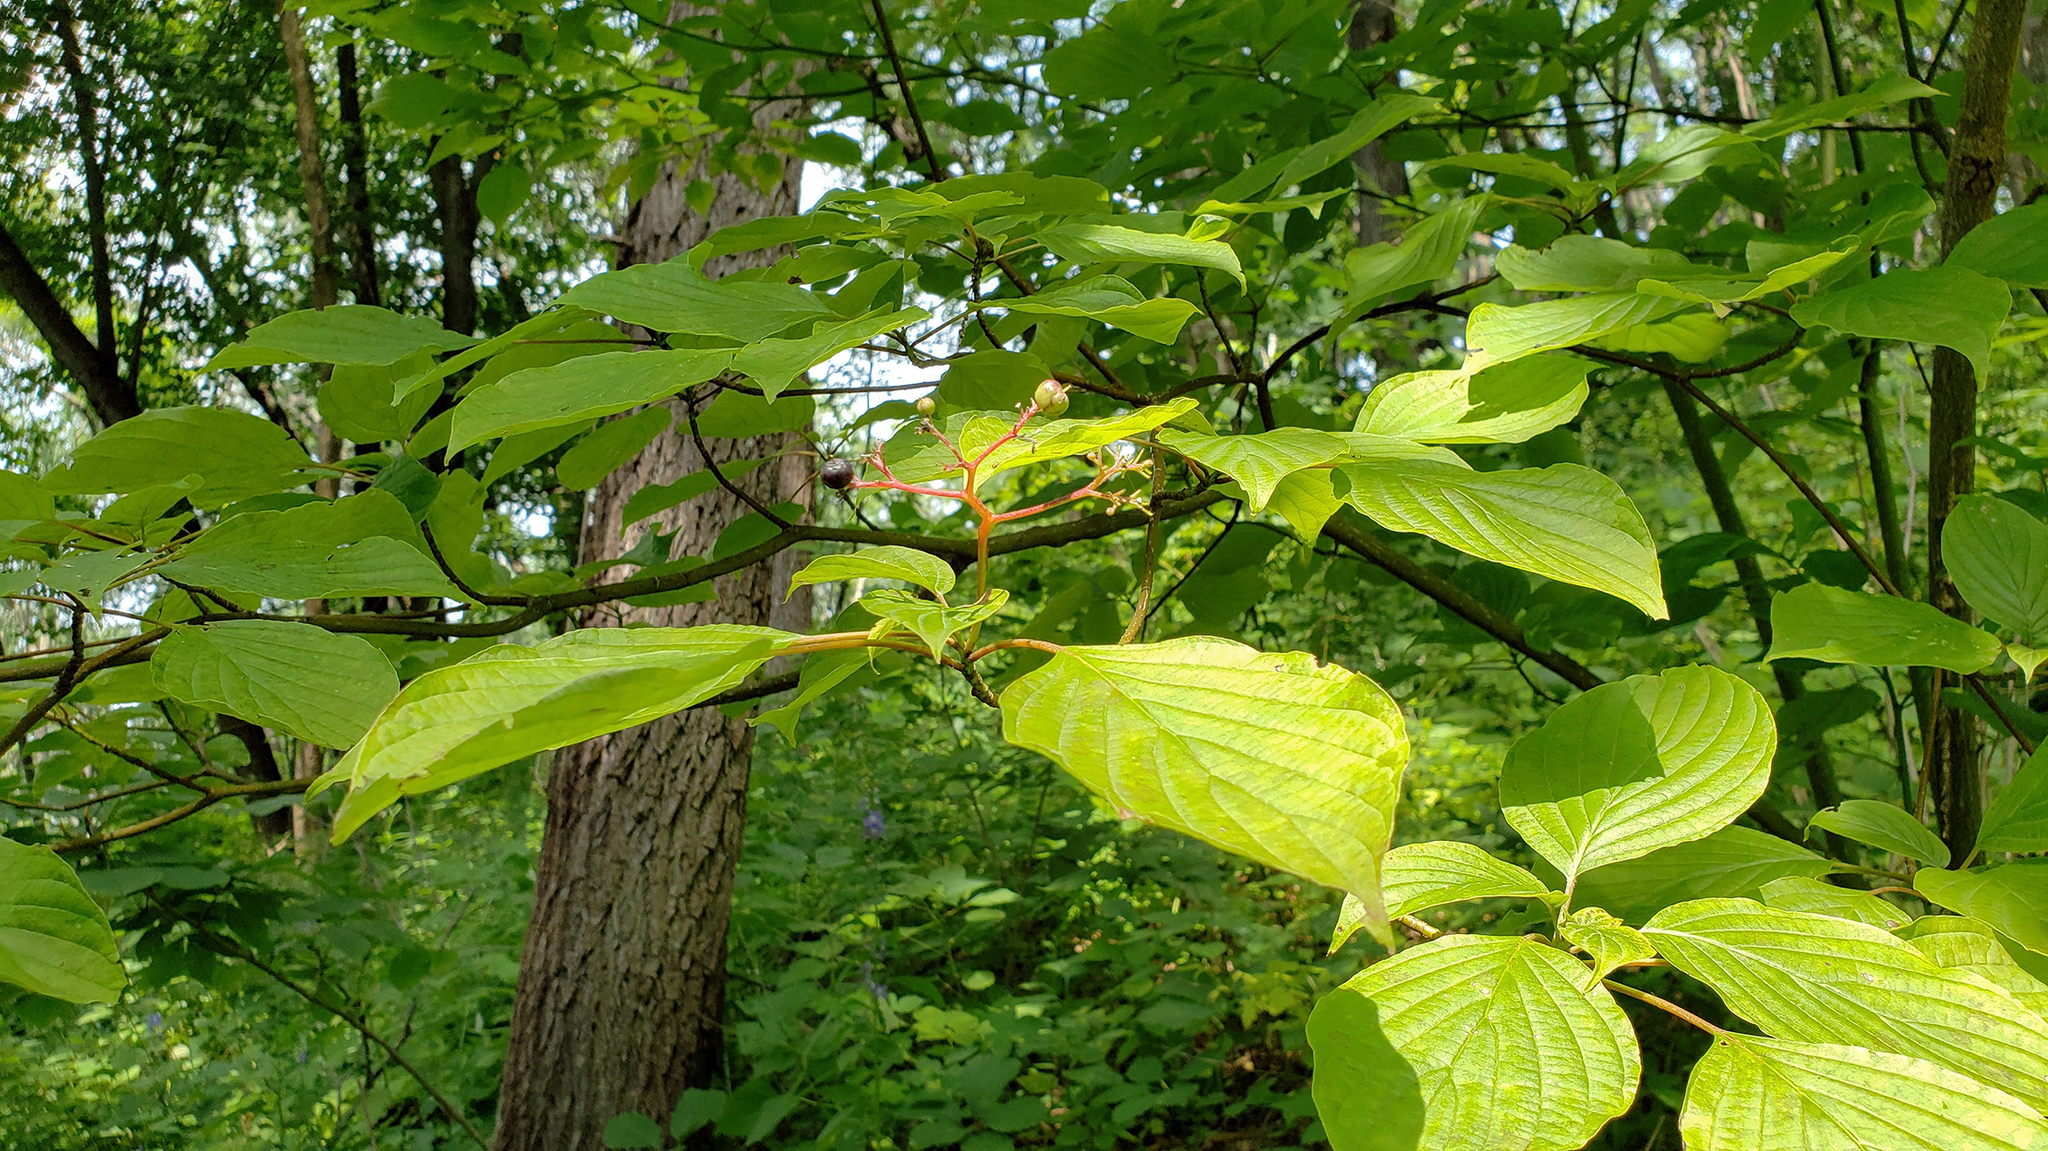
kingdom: Plantae
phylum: Tracheophyta
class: Magnoliopsida
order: Cornales
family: Cornaceae
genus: Cornus
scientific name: Cornus alternifolia
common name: Pagoda dogwood
